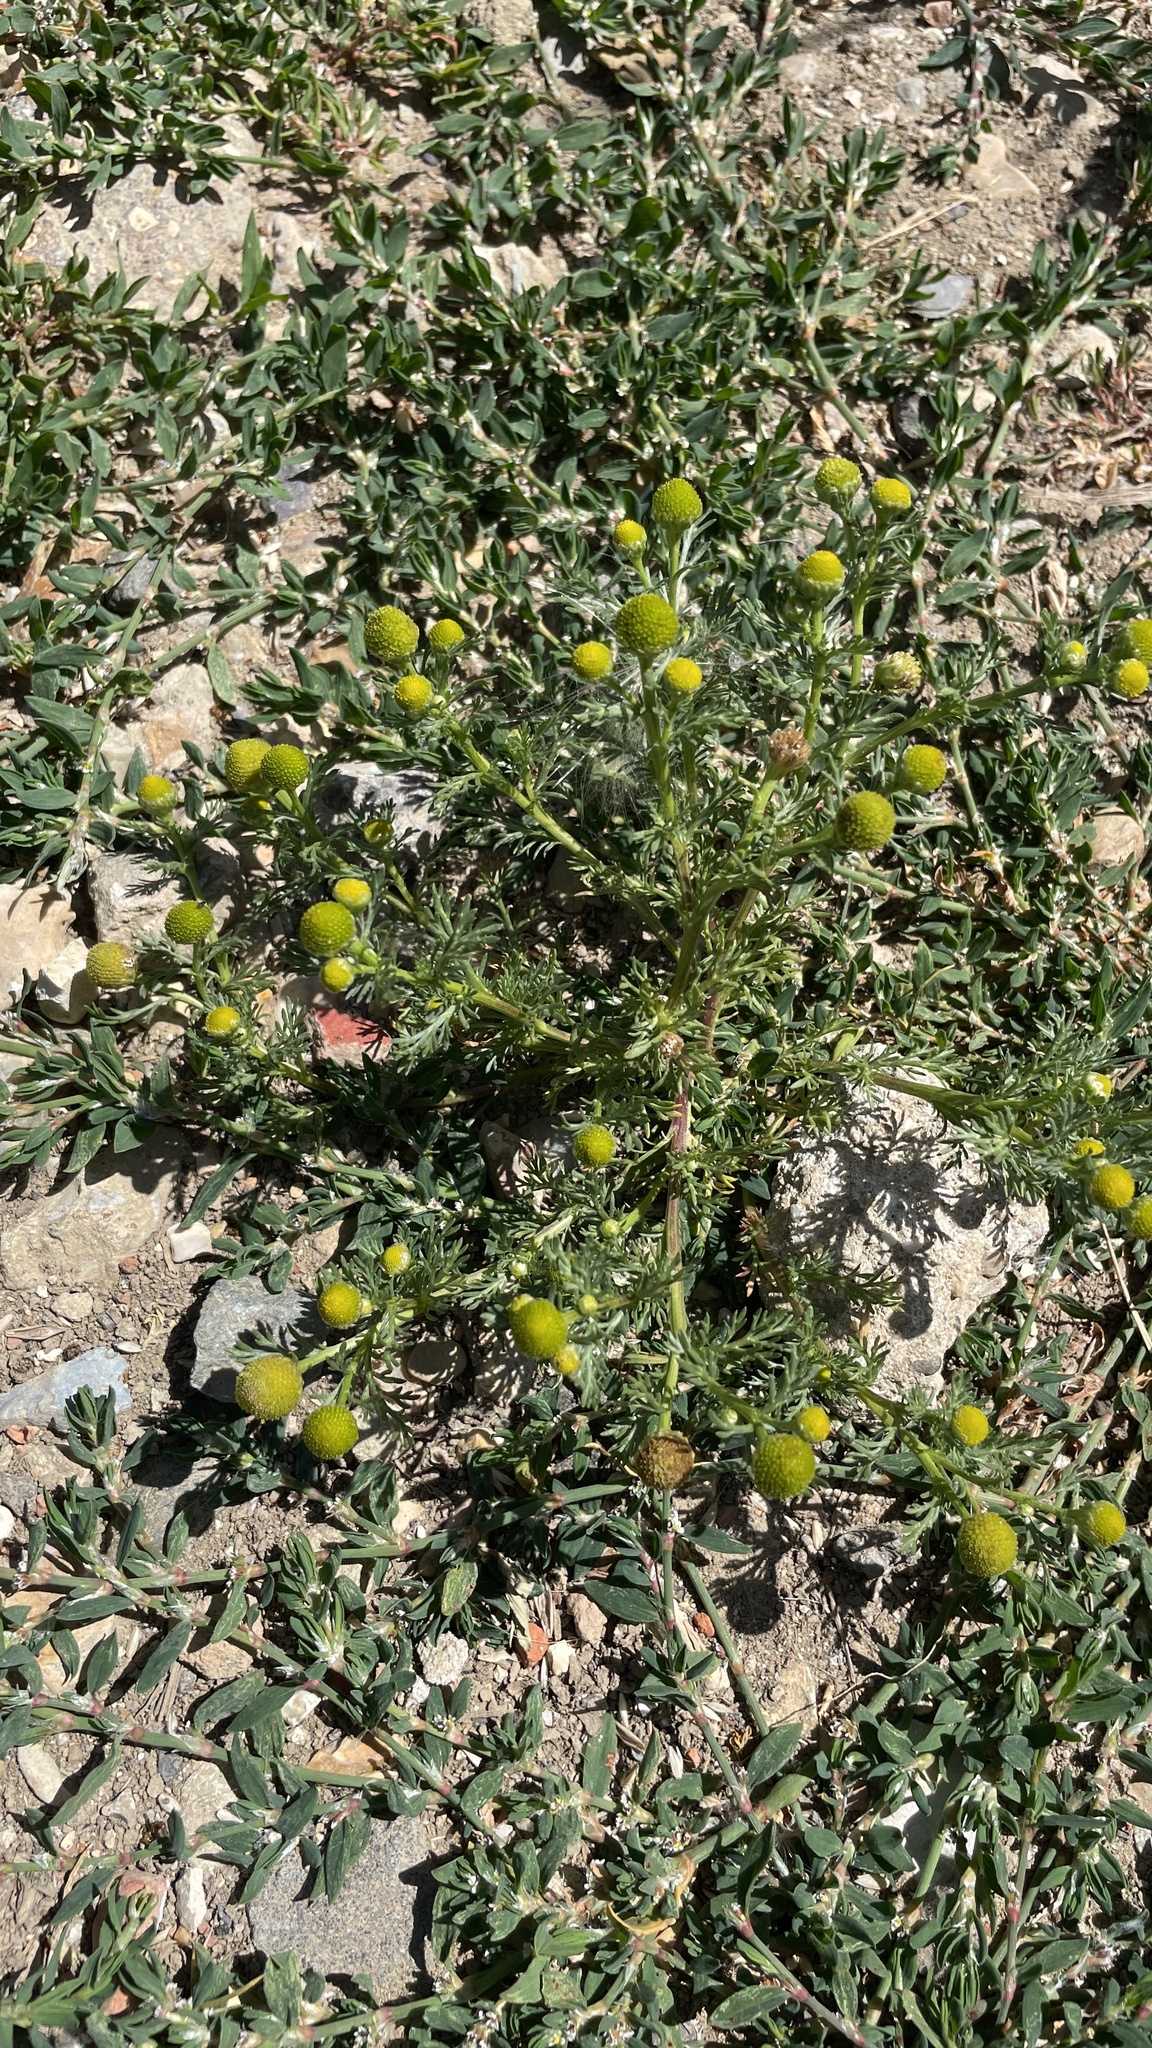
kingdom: Plantae
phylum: Tracheophyta
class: Magnoliopsida
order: Asterales
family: Asteraceae
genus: Matricaria
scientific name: Matricaria discoidea
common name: Disc mayweed
